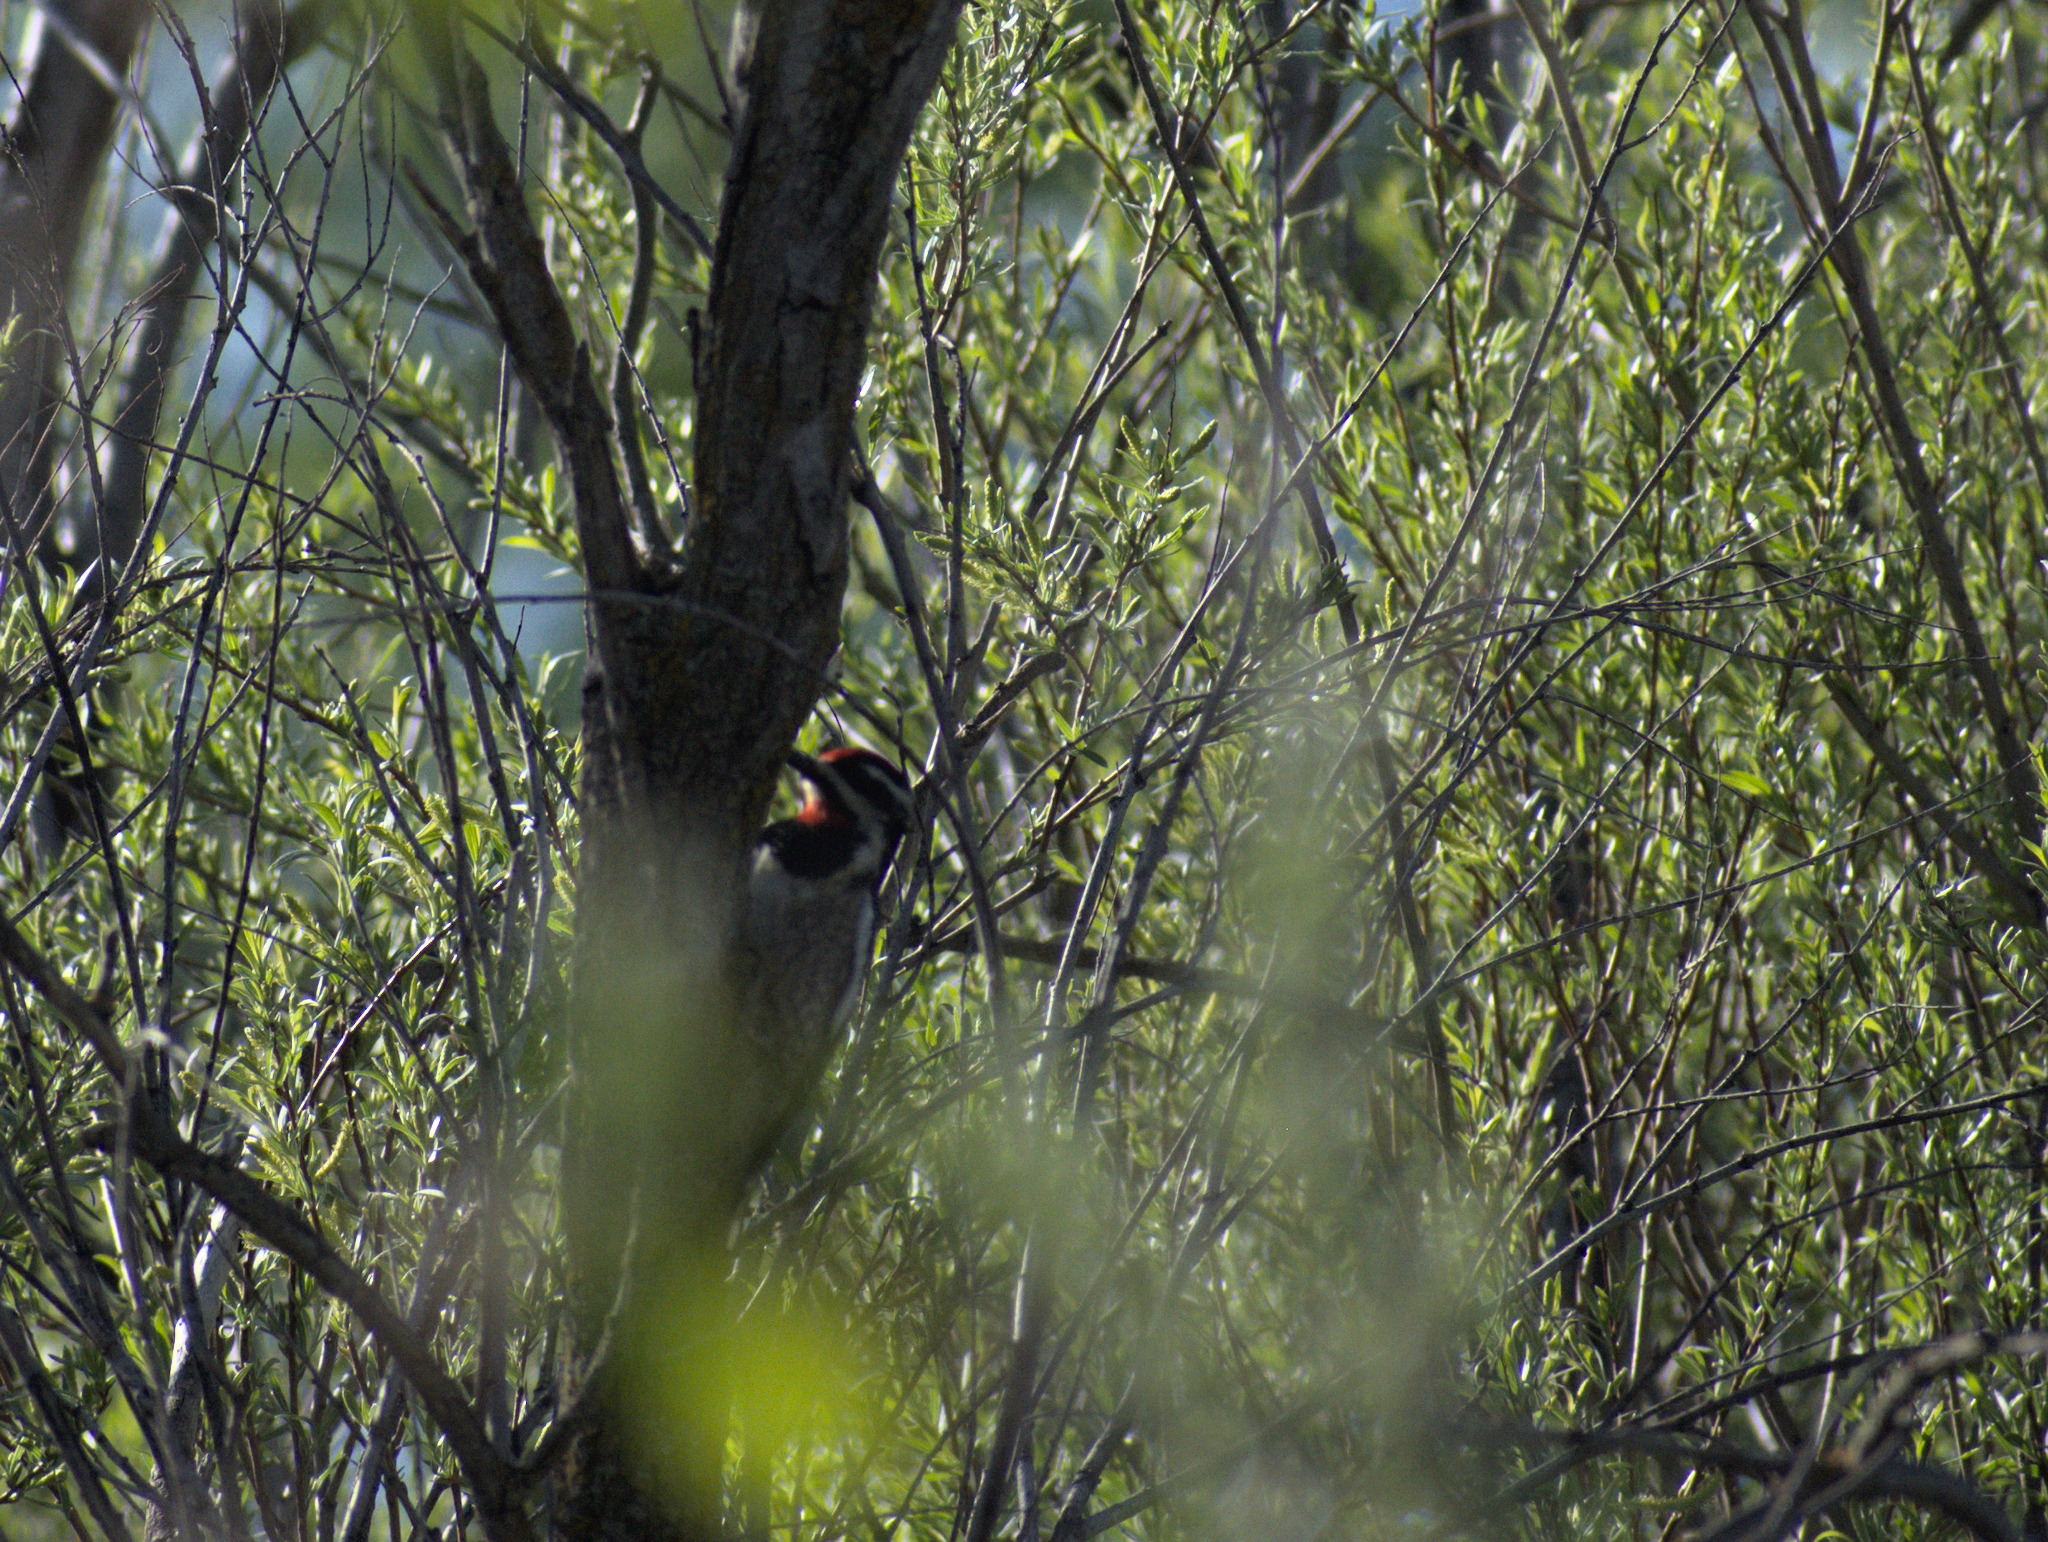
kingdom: Animalia
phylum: Chordata
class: Aves
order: Piciformes
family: Picidae
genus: Sphyrapicus
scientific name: Sphyrapicus nuchalis
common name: Red-naped sapsucker
